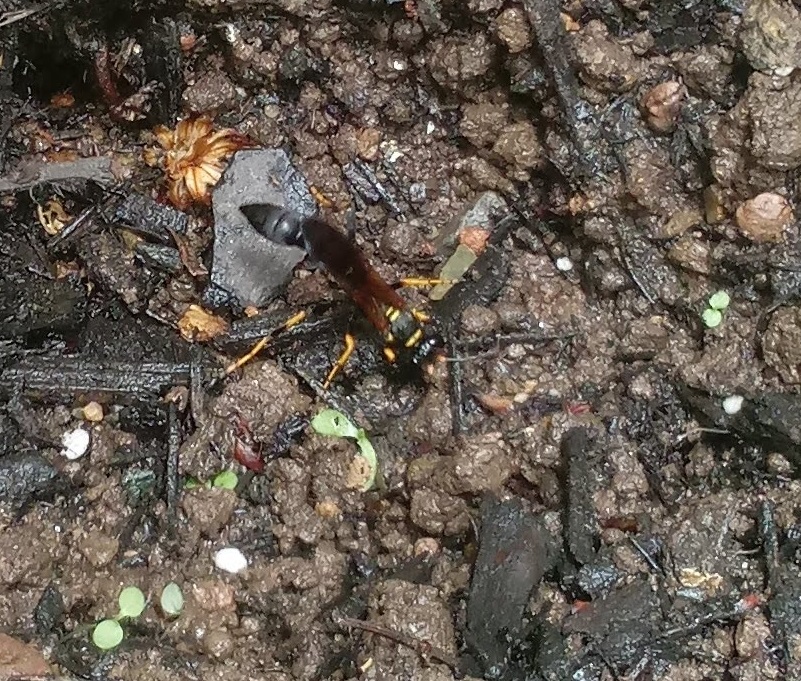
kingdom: Animalia
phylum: Arthropoda
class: Insecta
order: Hymenoptera
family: Sphecidae
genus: Sceliphron
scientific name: Sceliphron caementarium
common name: Mud dauber
